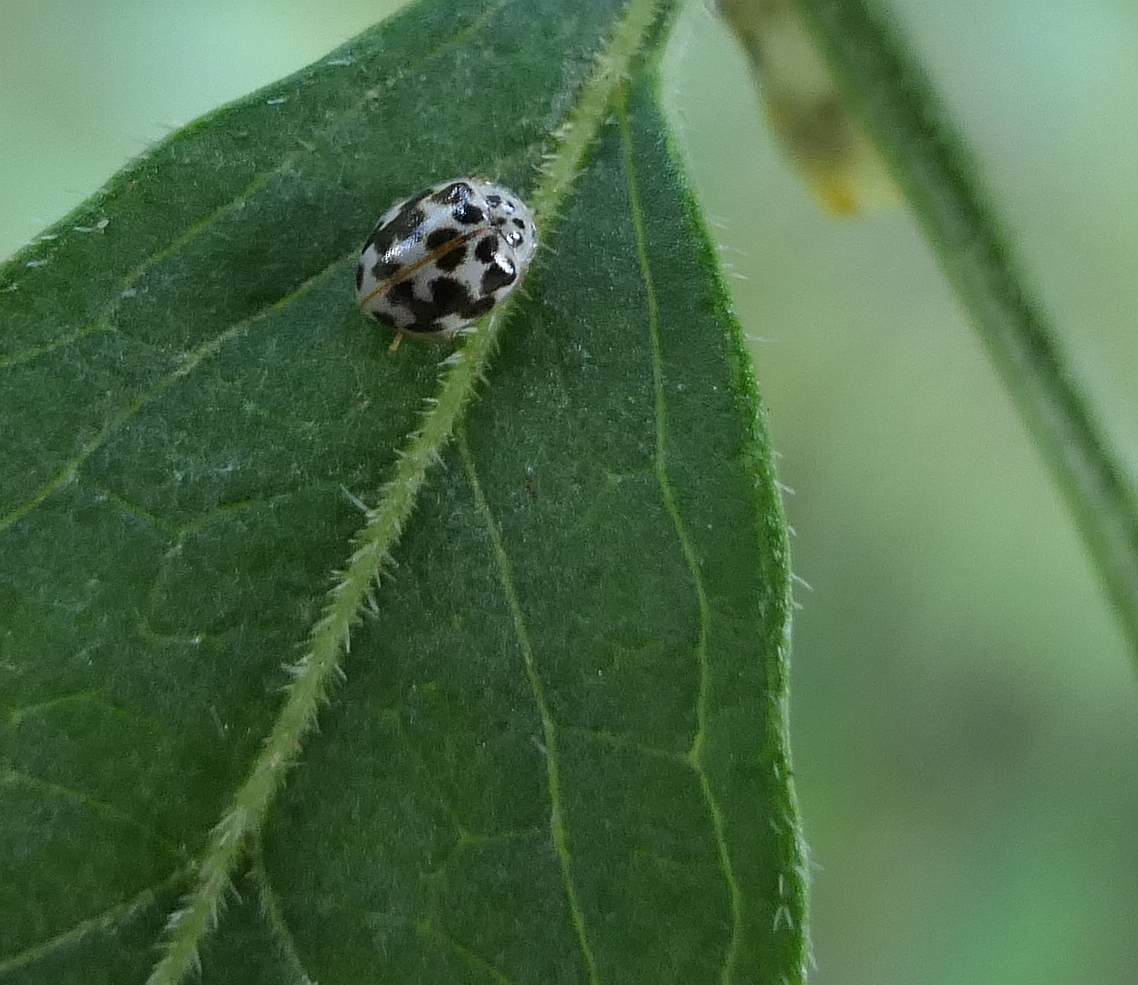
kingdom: Animalia
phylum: Arthropoda
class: Insecta
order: Coleoptera
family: Coccinellidae
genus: Psyllobora
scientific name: Psyllobora vigintimaculata
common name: Ladybird beetle
